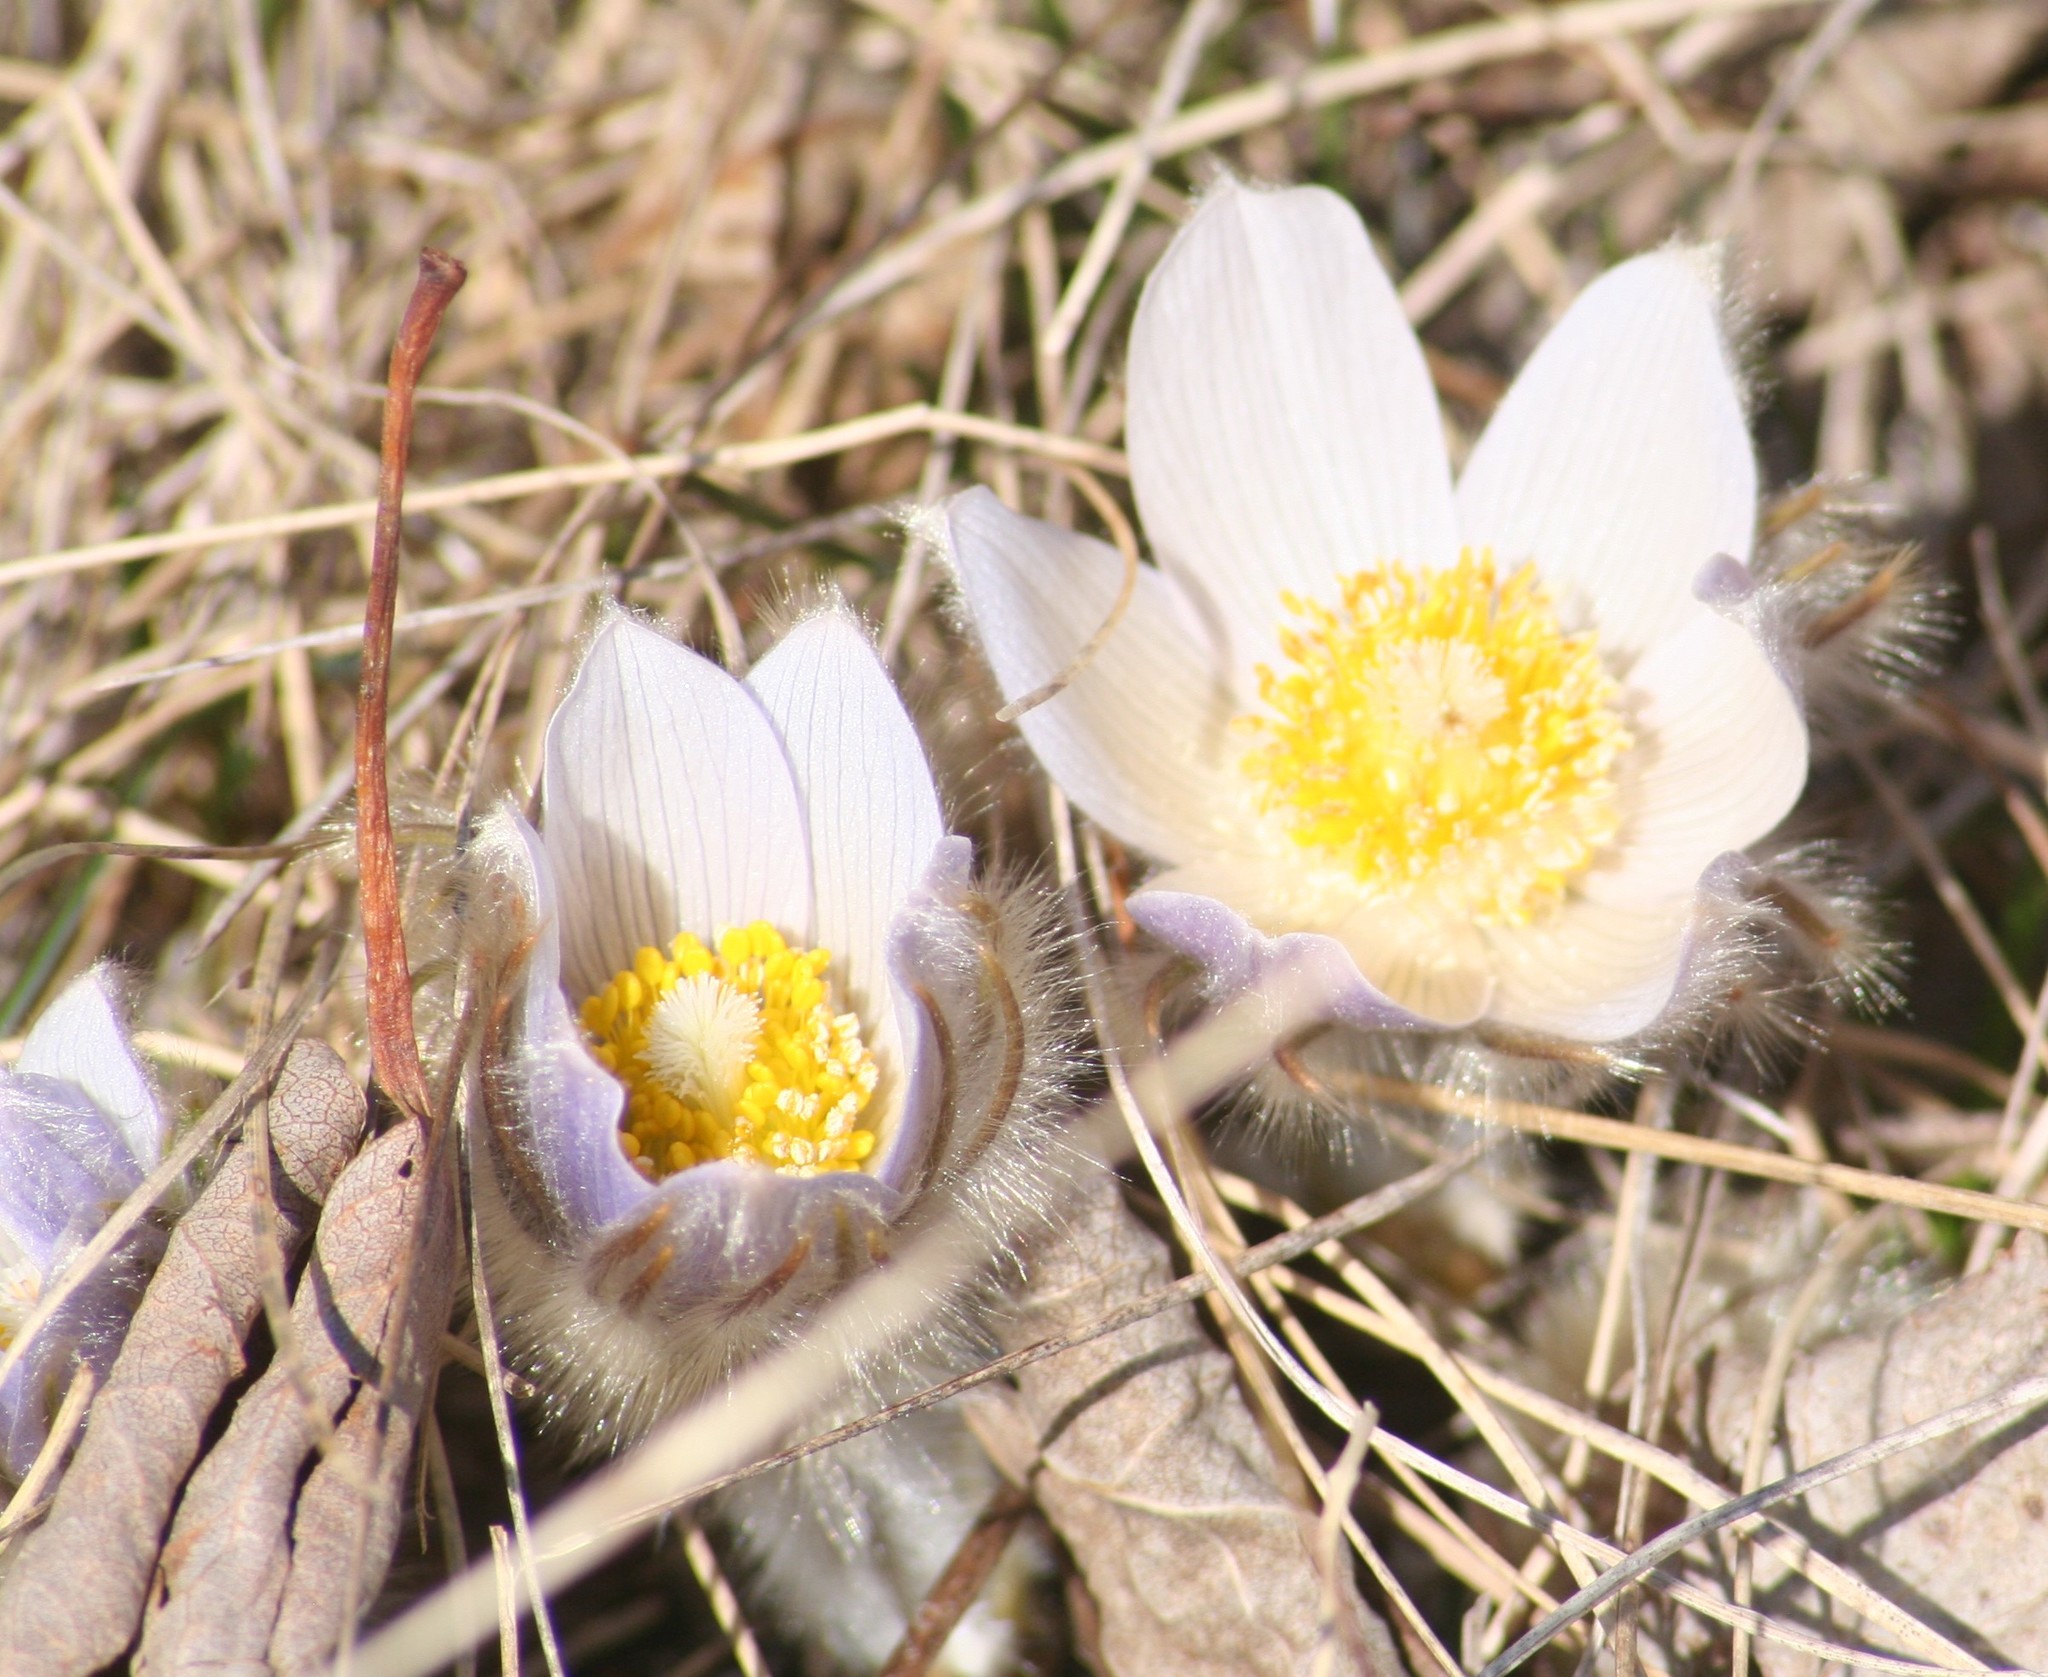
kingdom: Plantae
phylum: Tracheophyta
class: Magnoliopsida
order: Ranunculales
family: Ranunculaceae
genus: Pulsatilla
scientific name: Pulsatilla nuttalliana
